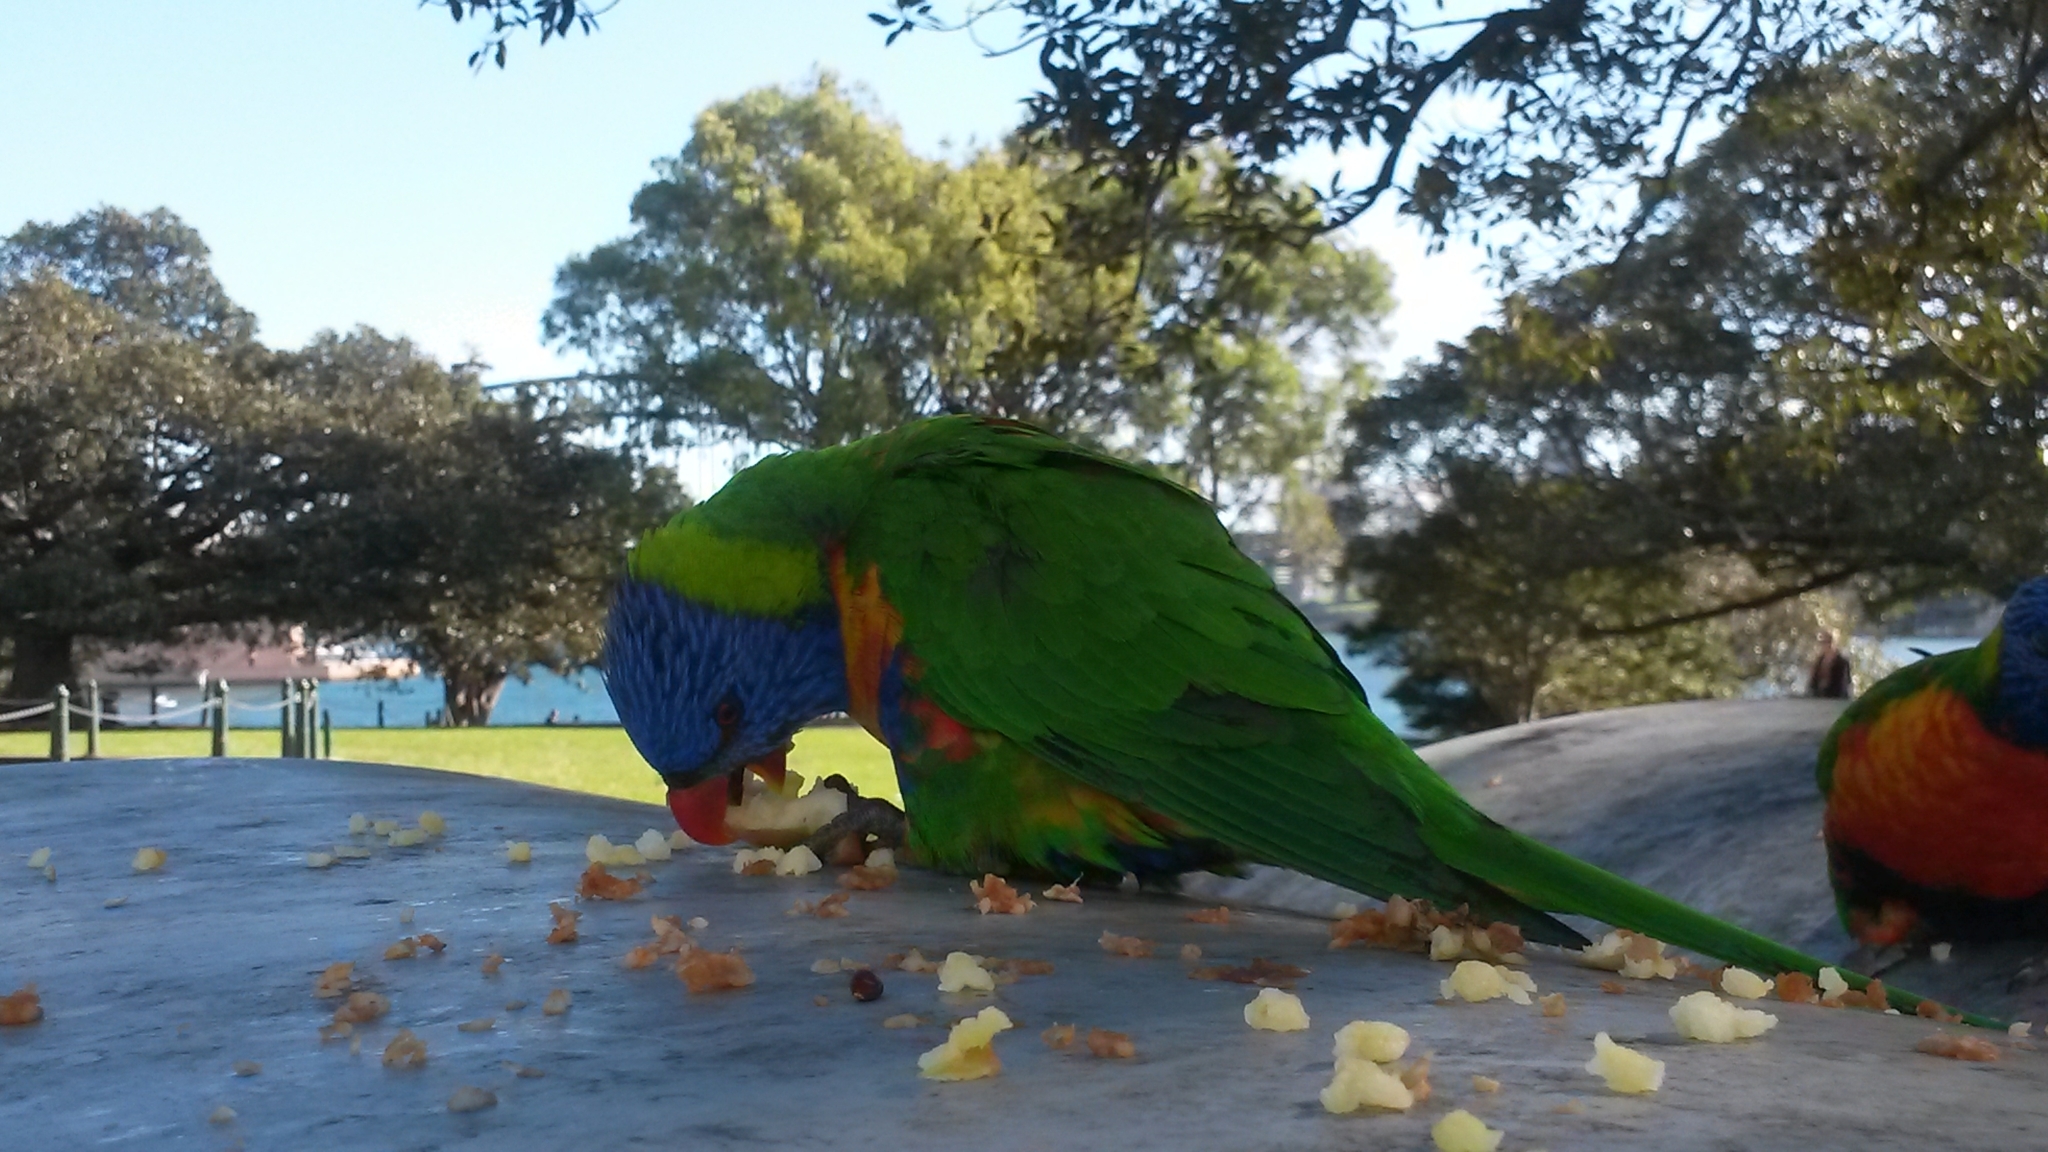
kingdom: Animalia
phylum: Chordata
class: Aves
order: Psittaciformes
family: Psittacidae
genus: Trichoglossus
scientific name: Trichoglossus haematodus
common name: Coconut lorikeet
